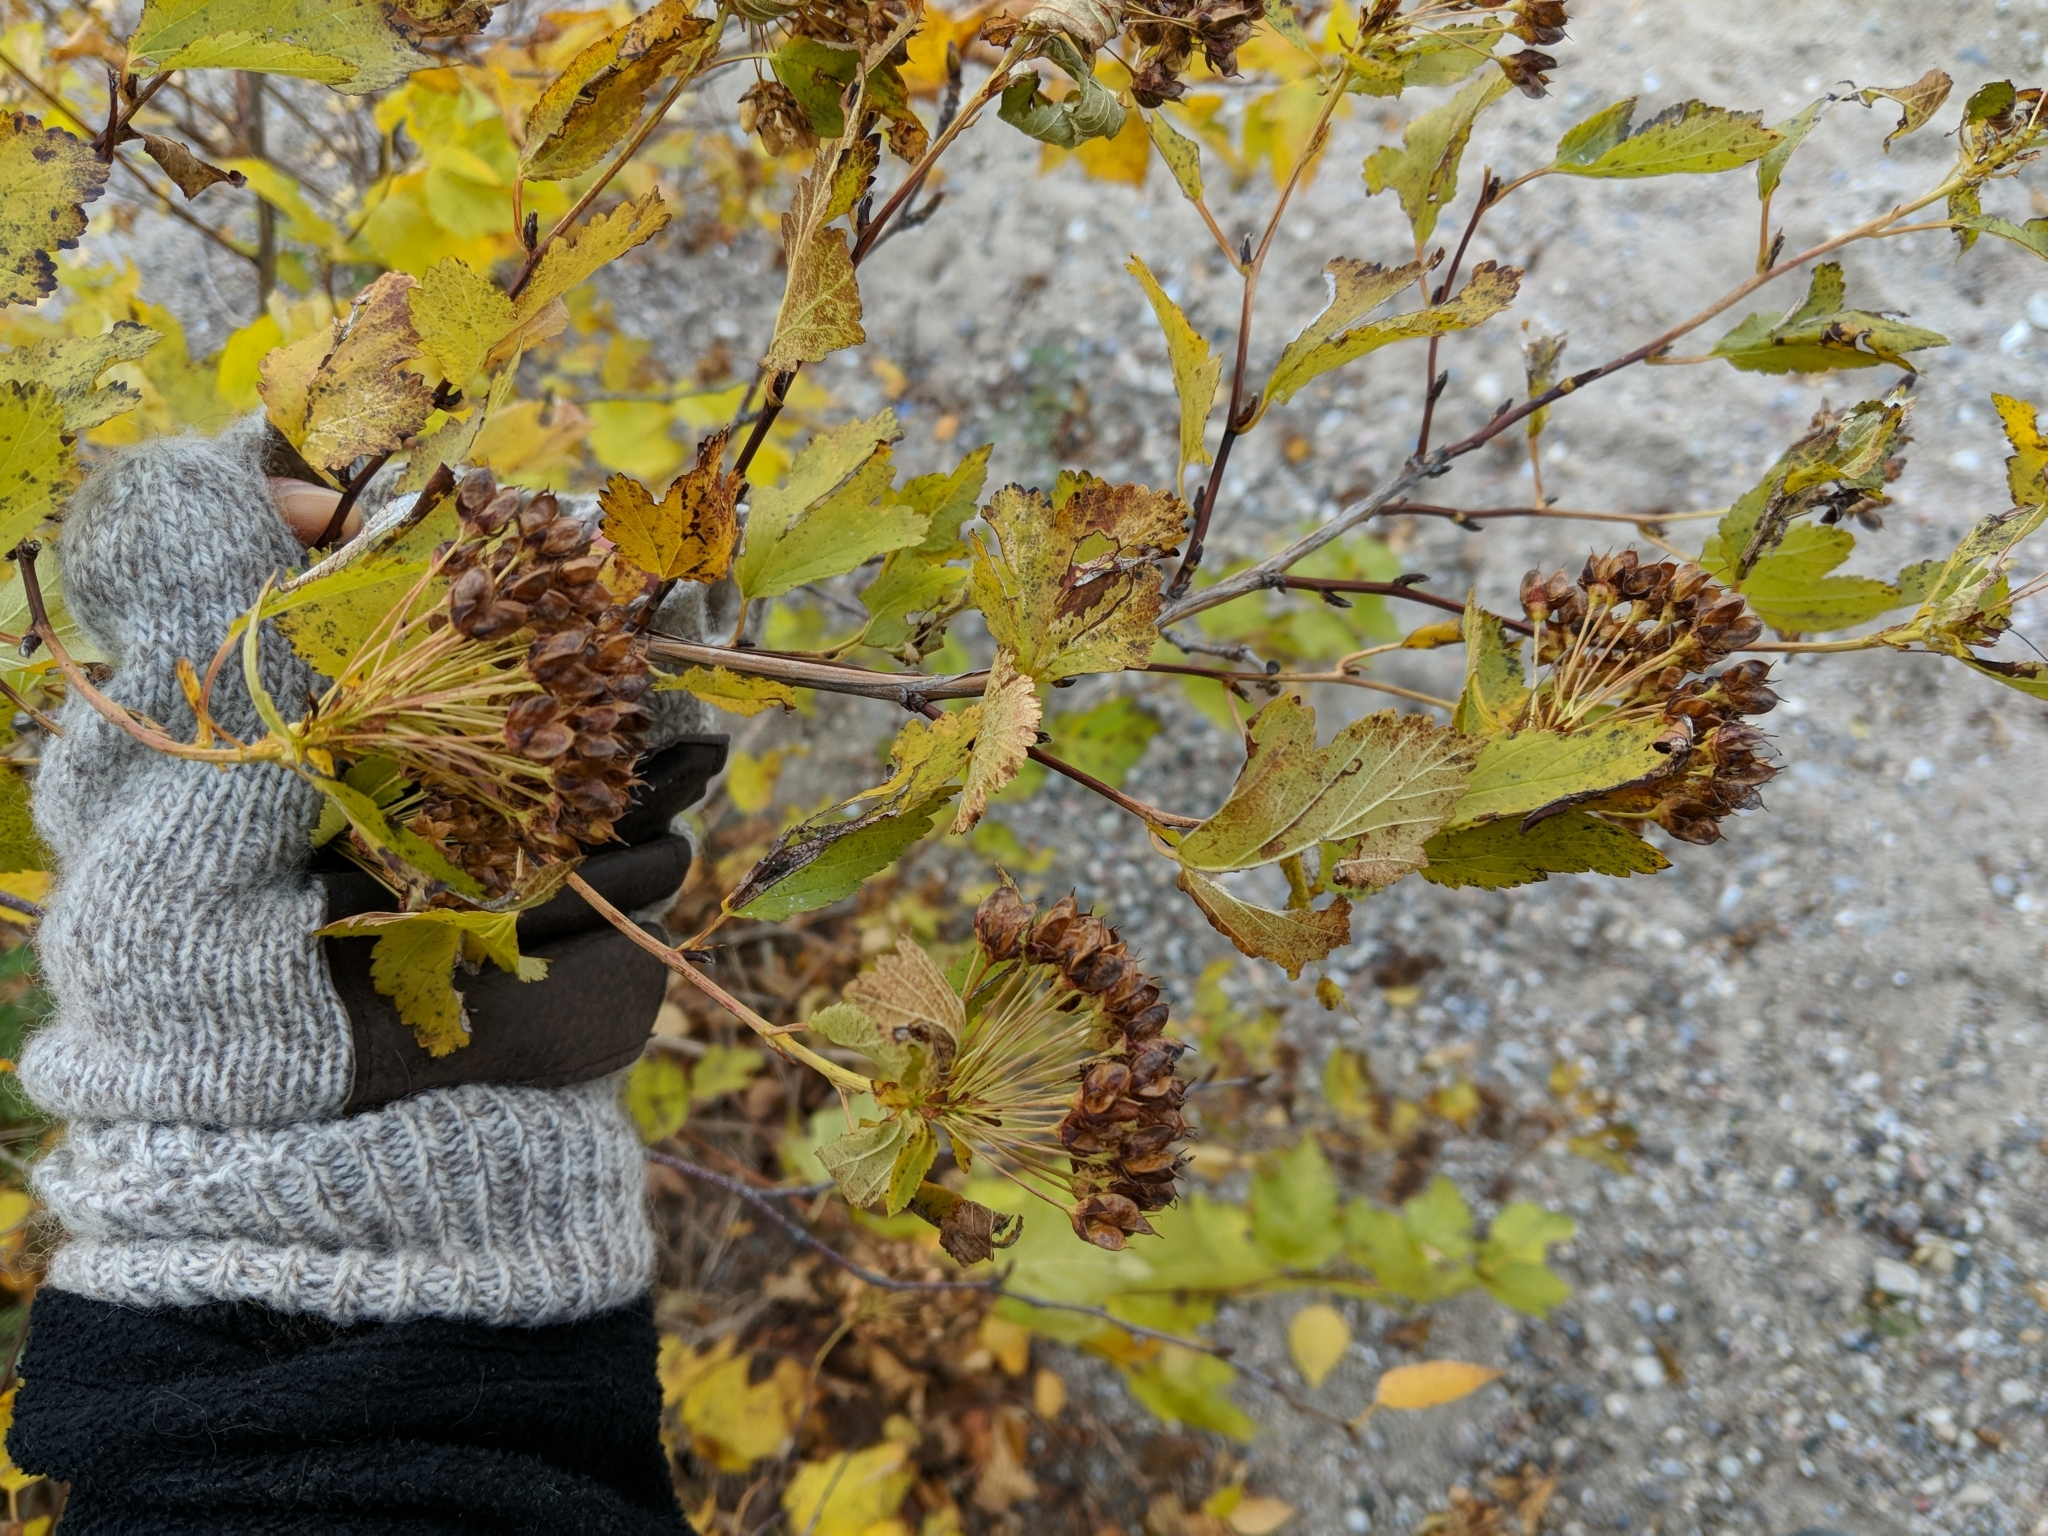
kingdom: Plantae
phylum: Tracheophyta
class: Magnoliopsida
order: Rosales
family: Rosaceae
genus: Physocarpus
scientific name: Physocarpus opulifolius
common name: Ninebark
